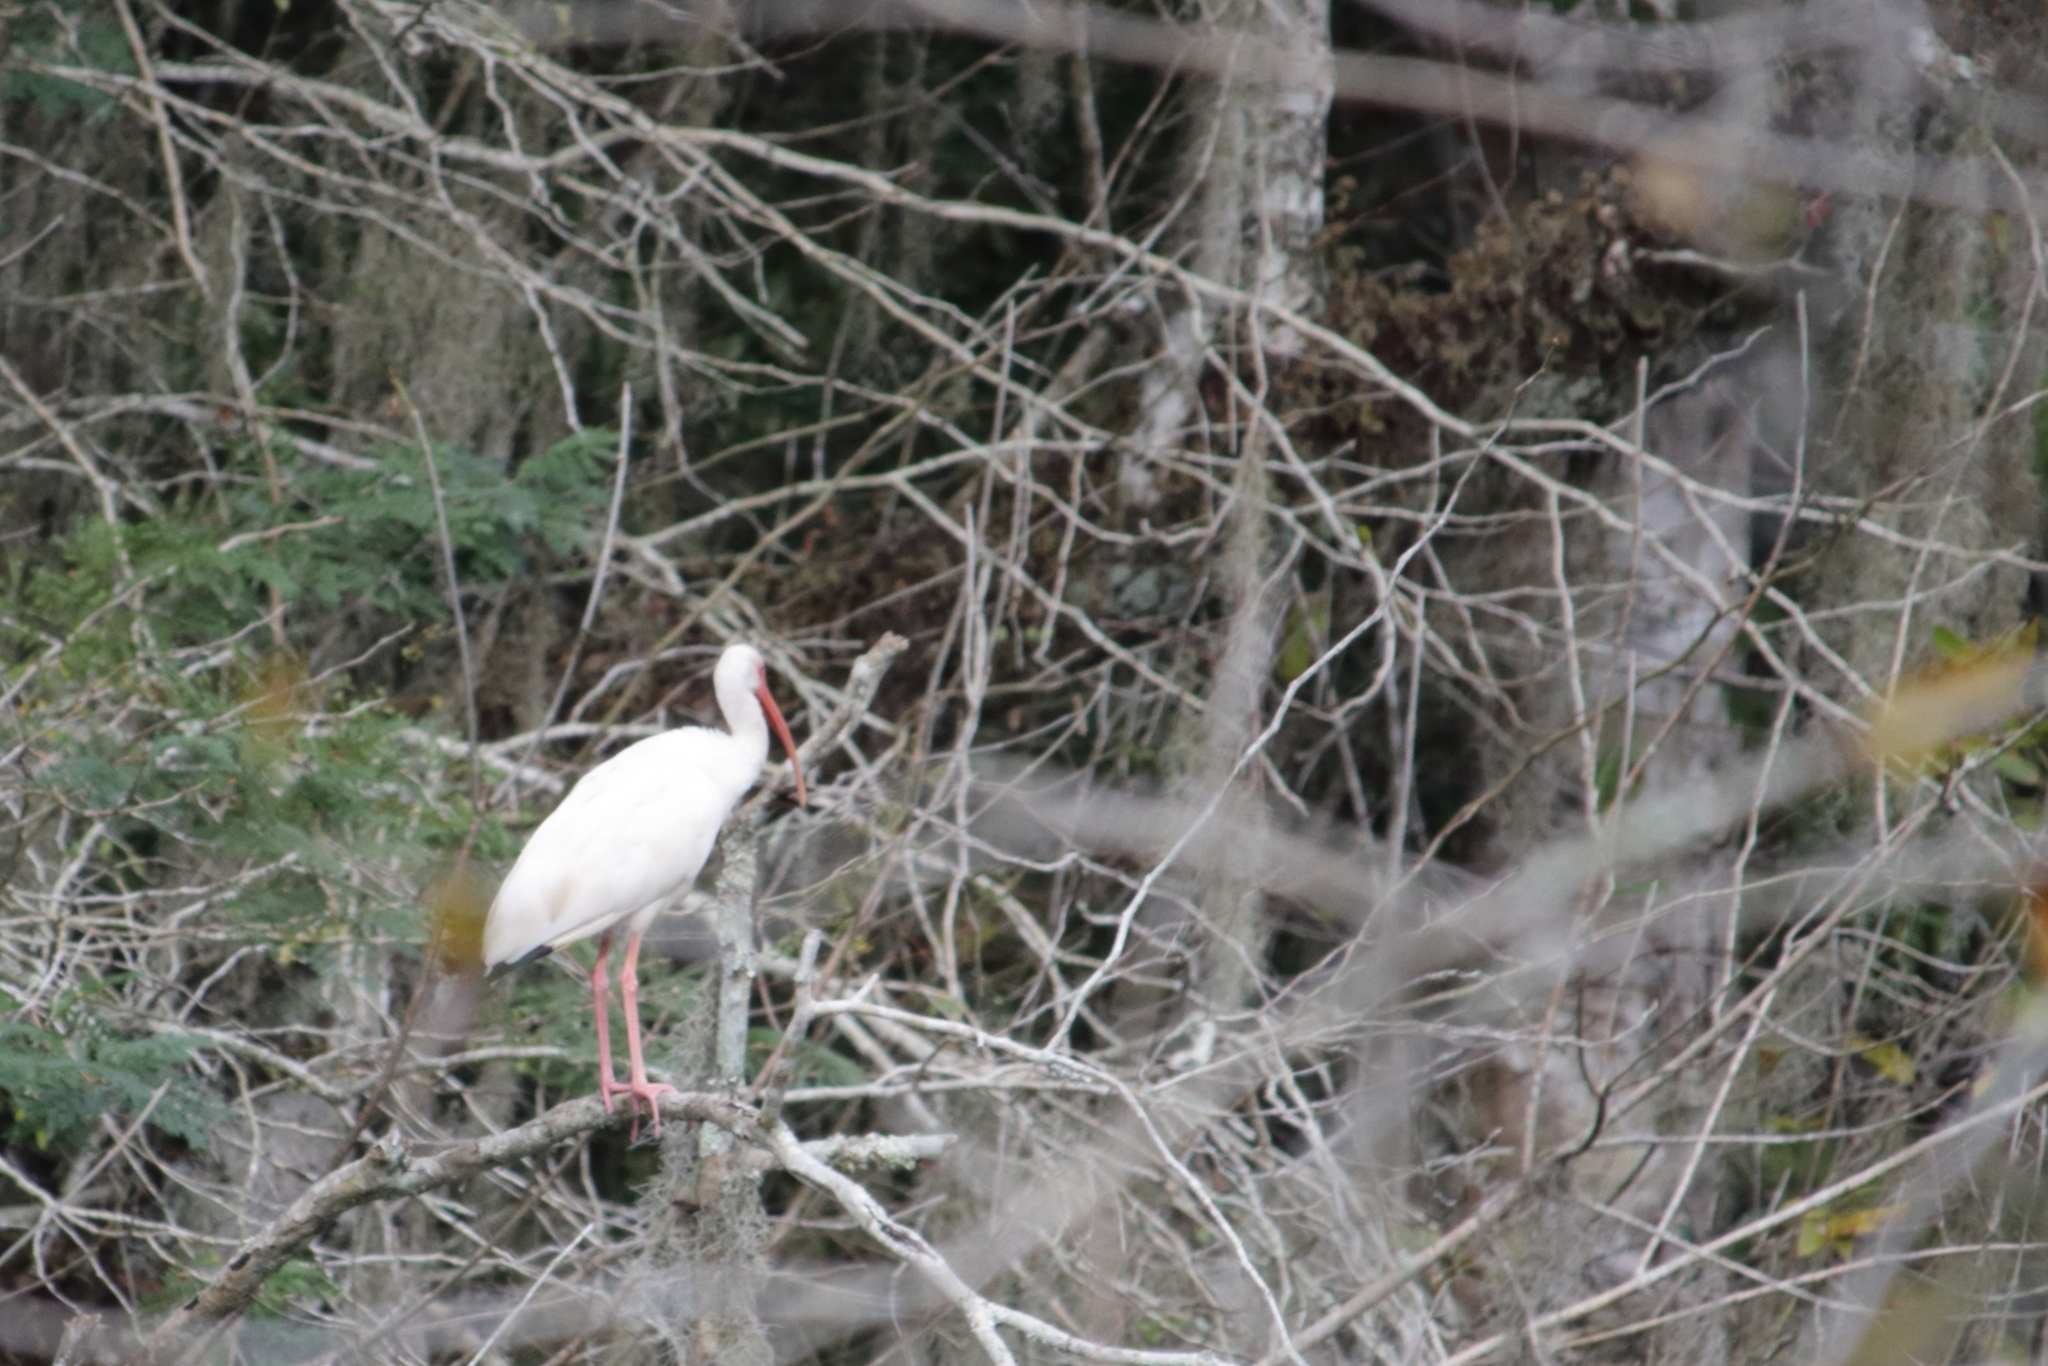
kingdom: Animalia
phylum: Chordata
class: Aves
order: Pelecaniformes
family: Threskiornithidae
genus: Eudocimus
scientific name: Eudocimus albus
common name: White ibis
